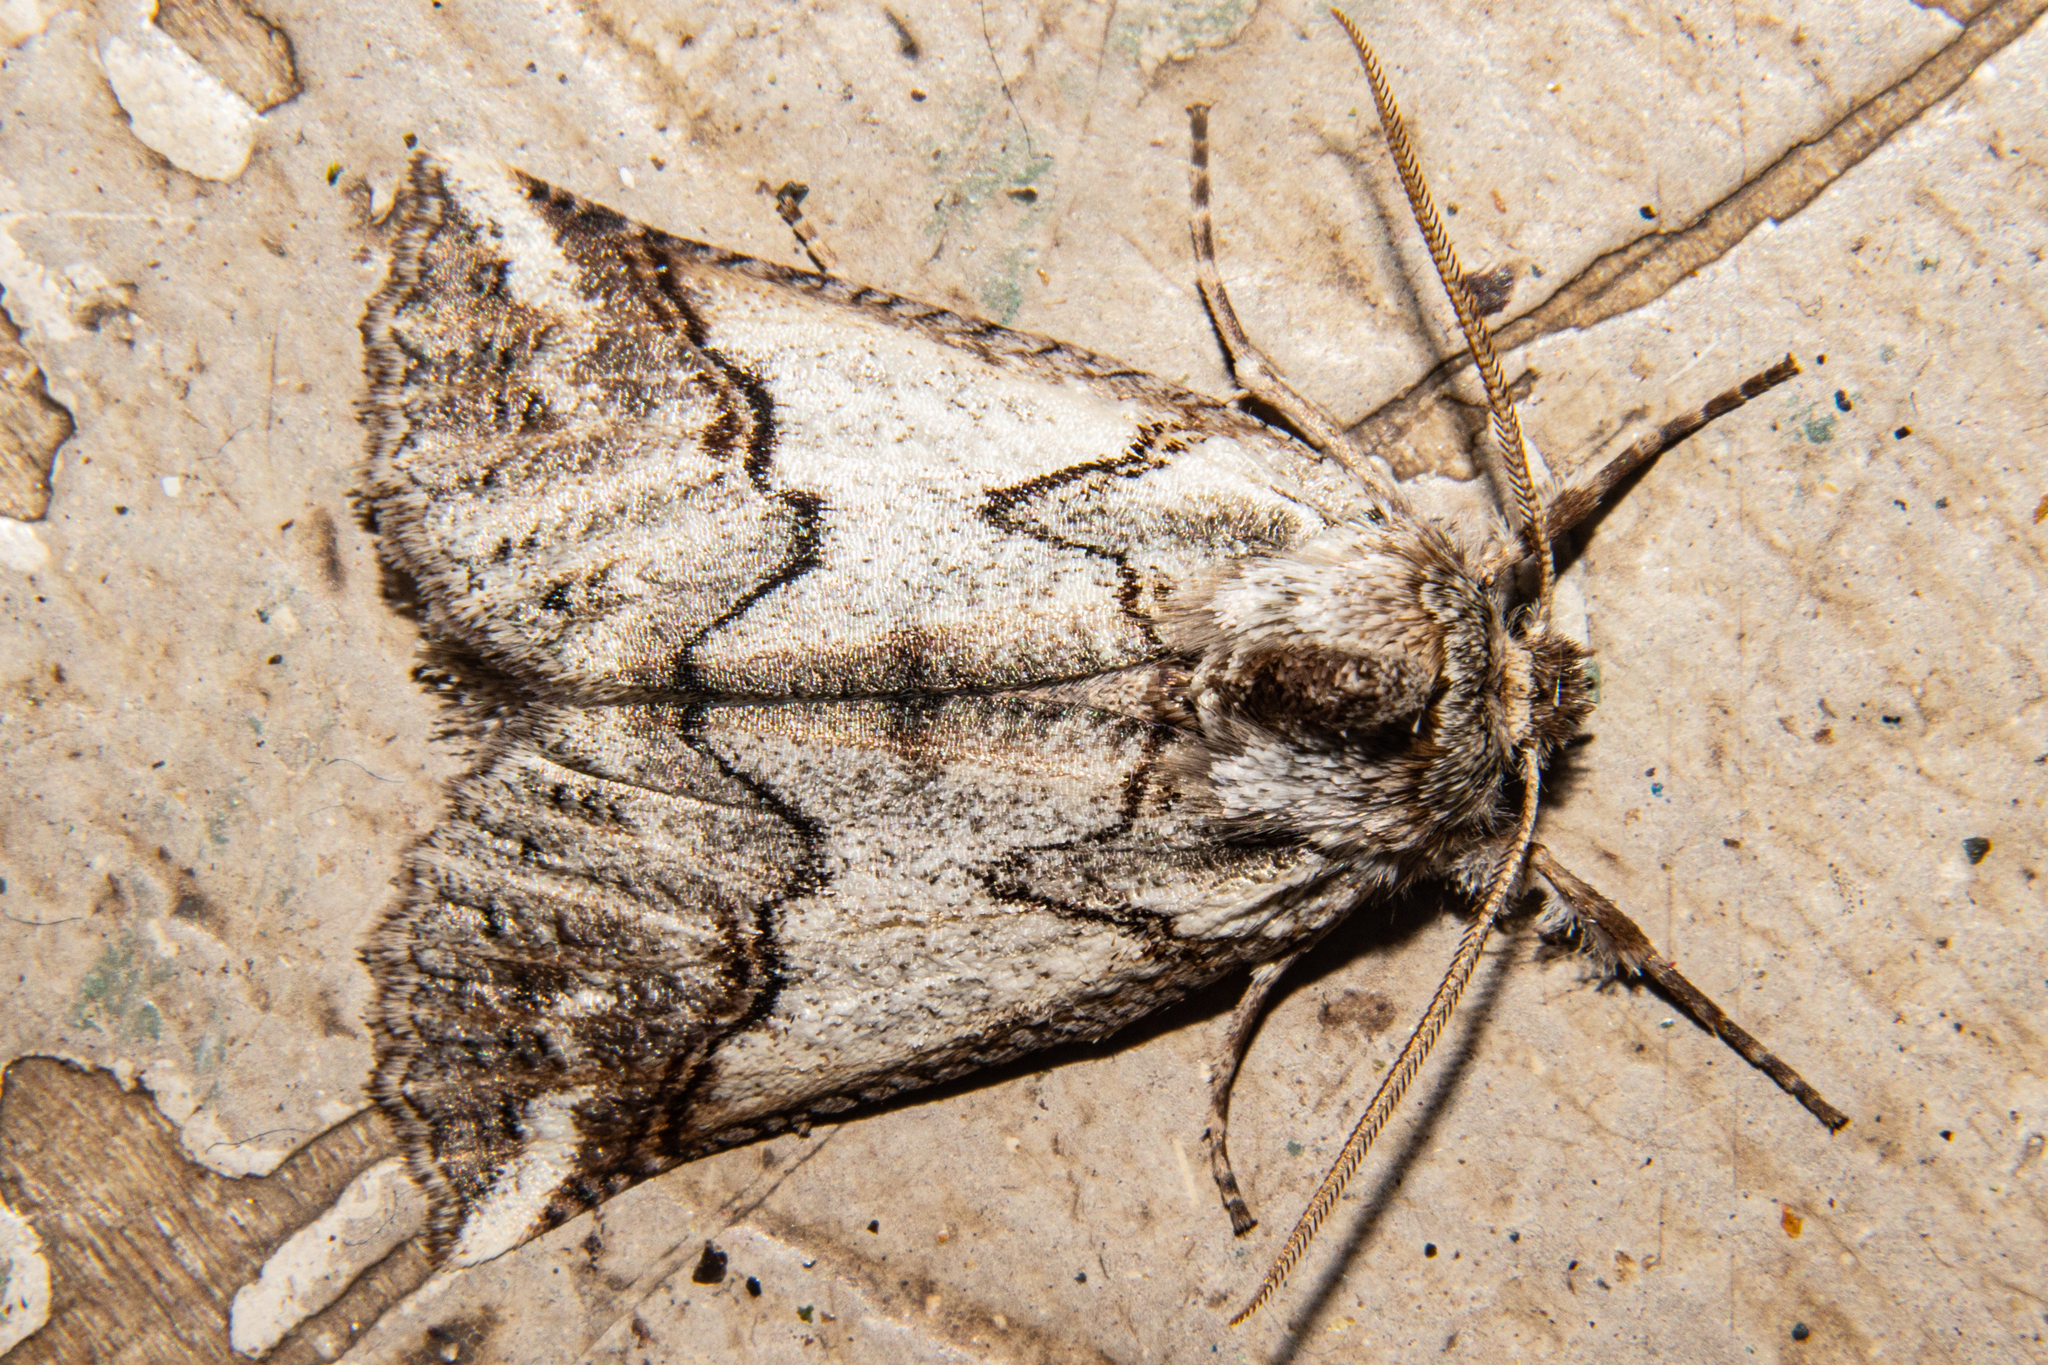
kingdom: Animalia
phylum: Arthropoda
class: Insecta
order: Lepidoptera
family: Geometridae
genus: Declana
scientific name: Declana
